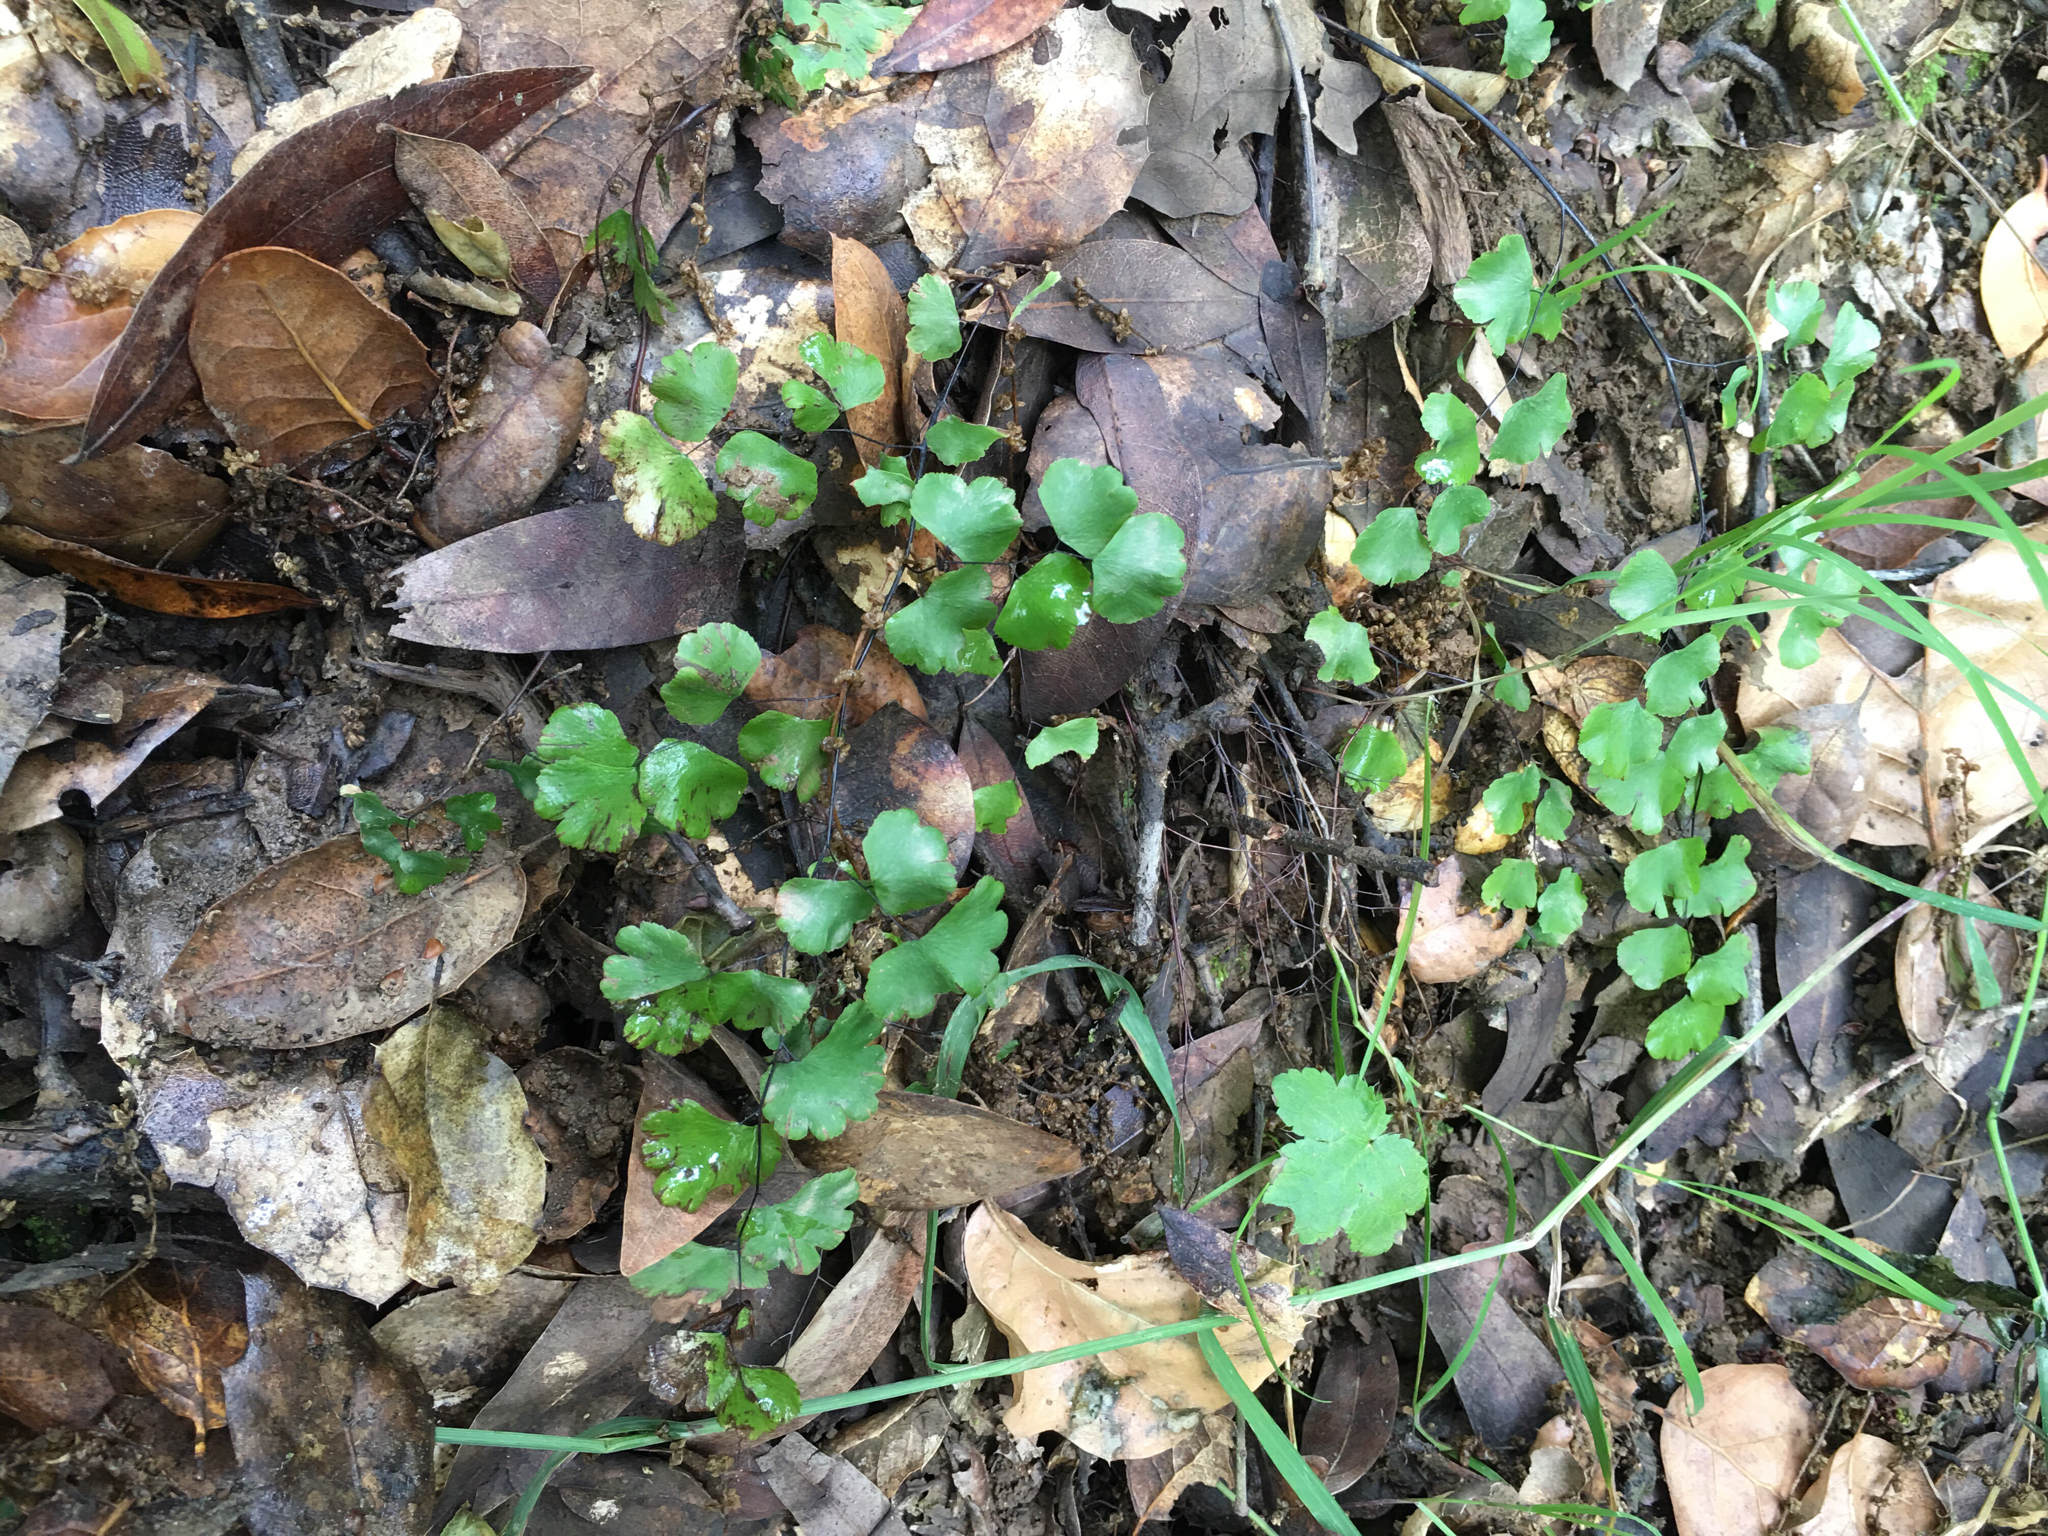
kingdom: Plantae
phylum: Tracheophyta
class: Polypodiopsida
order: Polypodiales
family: Pteridaceae
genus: Adiantum
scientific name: Adiantum jordanii
